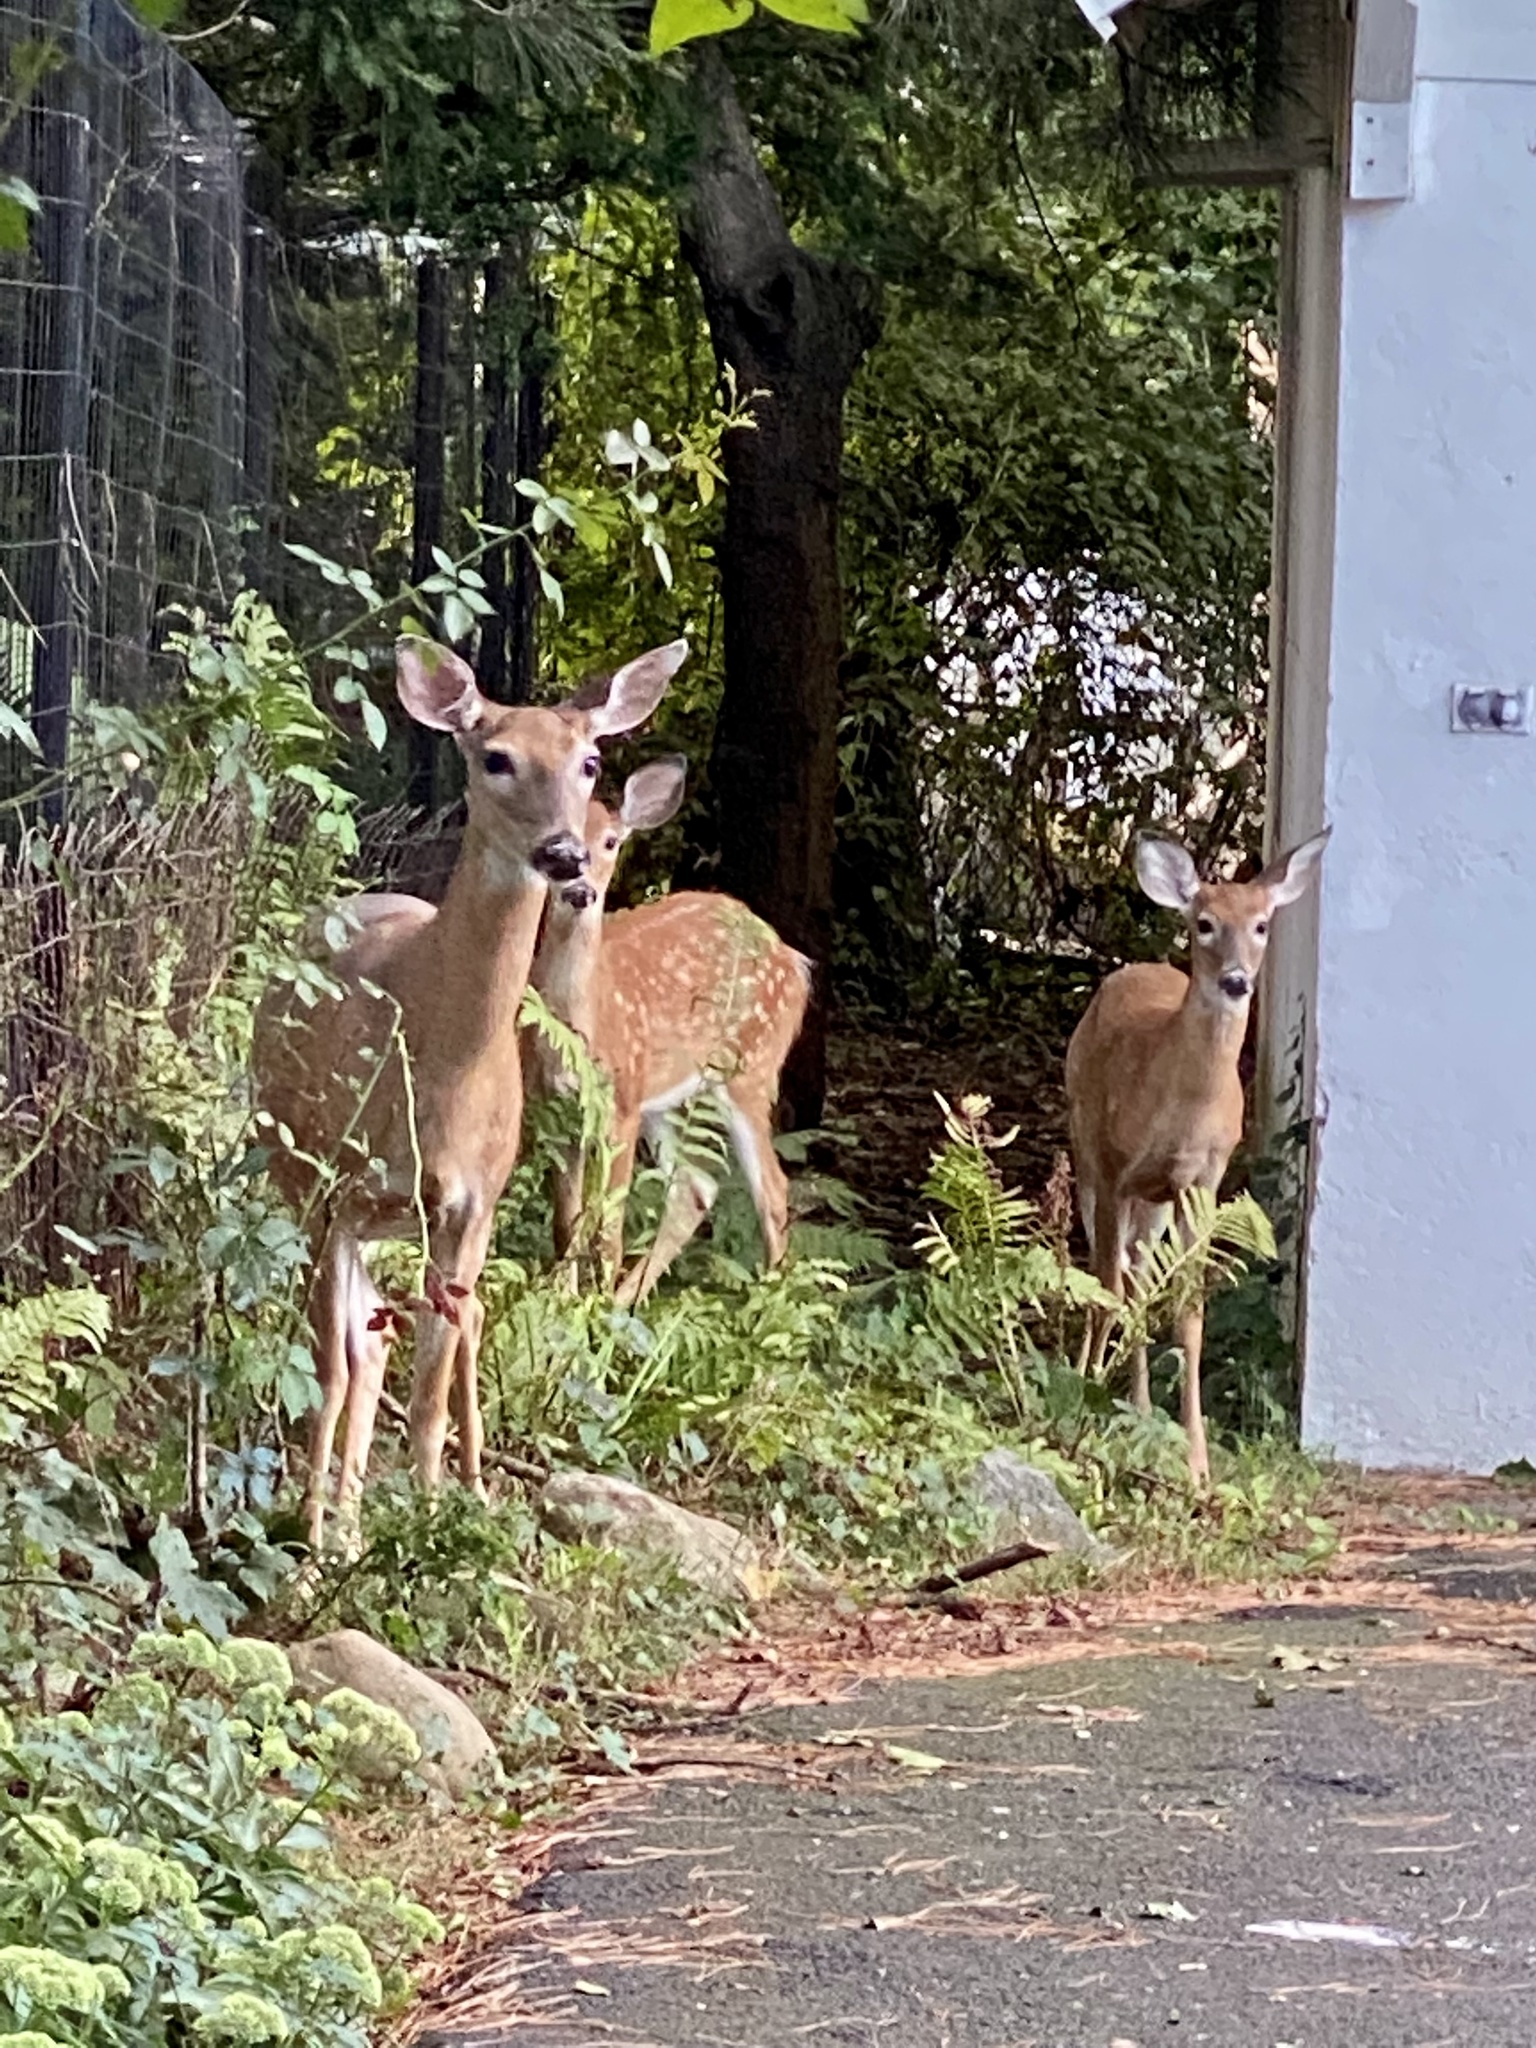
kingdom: Animalia
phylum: Chordata
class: Mammalia
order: Artiodactyla
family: Cervidae
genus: Odocoileus
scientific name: Odocoileus virginianus
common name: White-tailed deer
